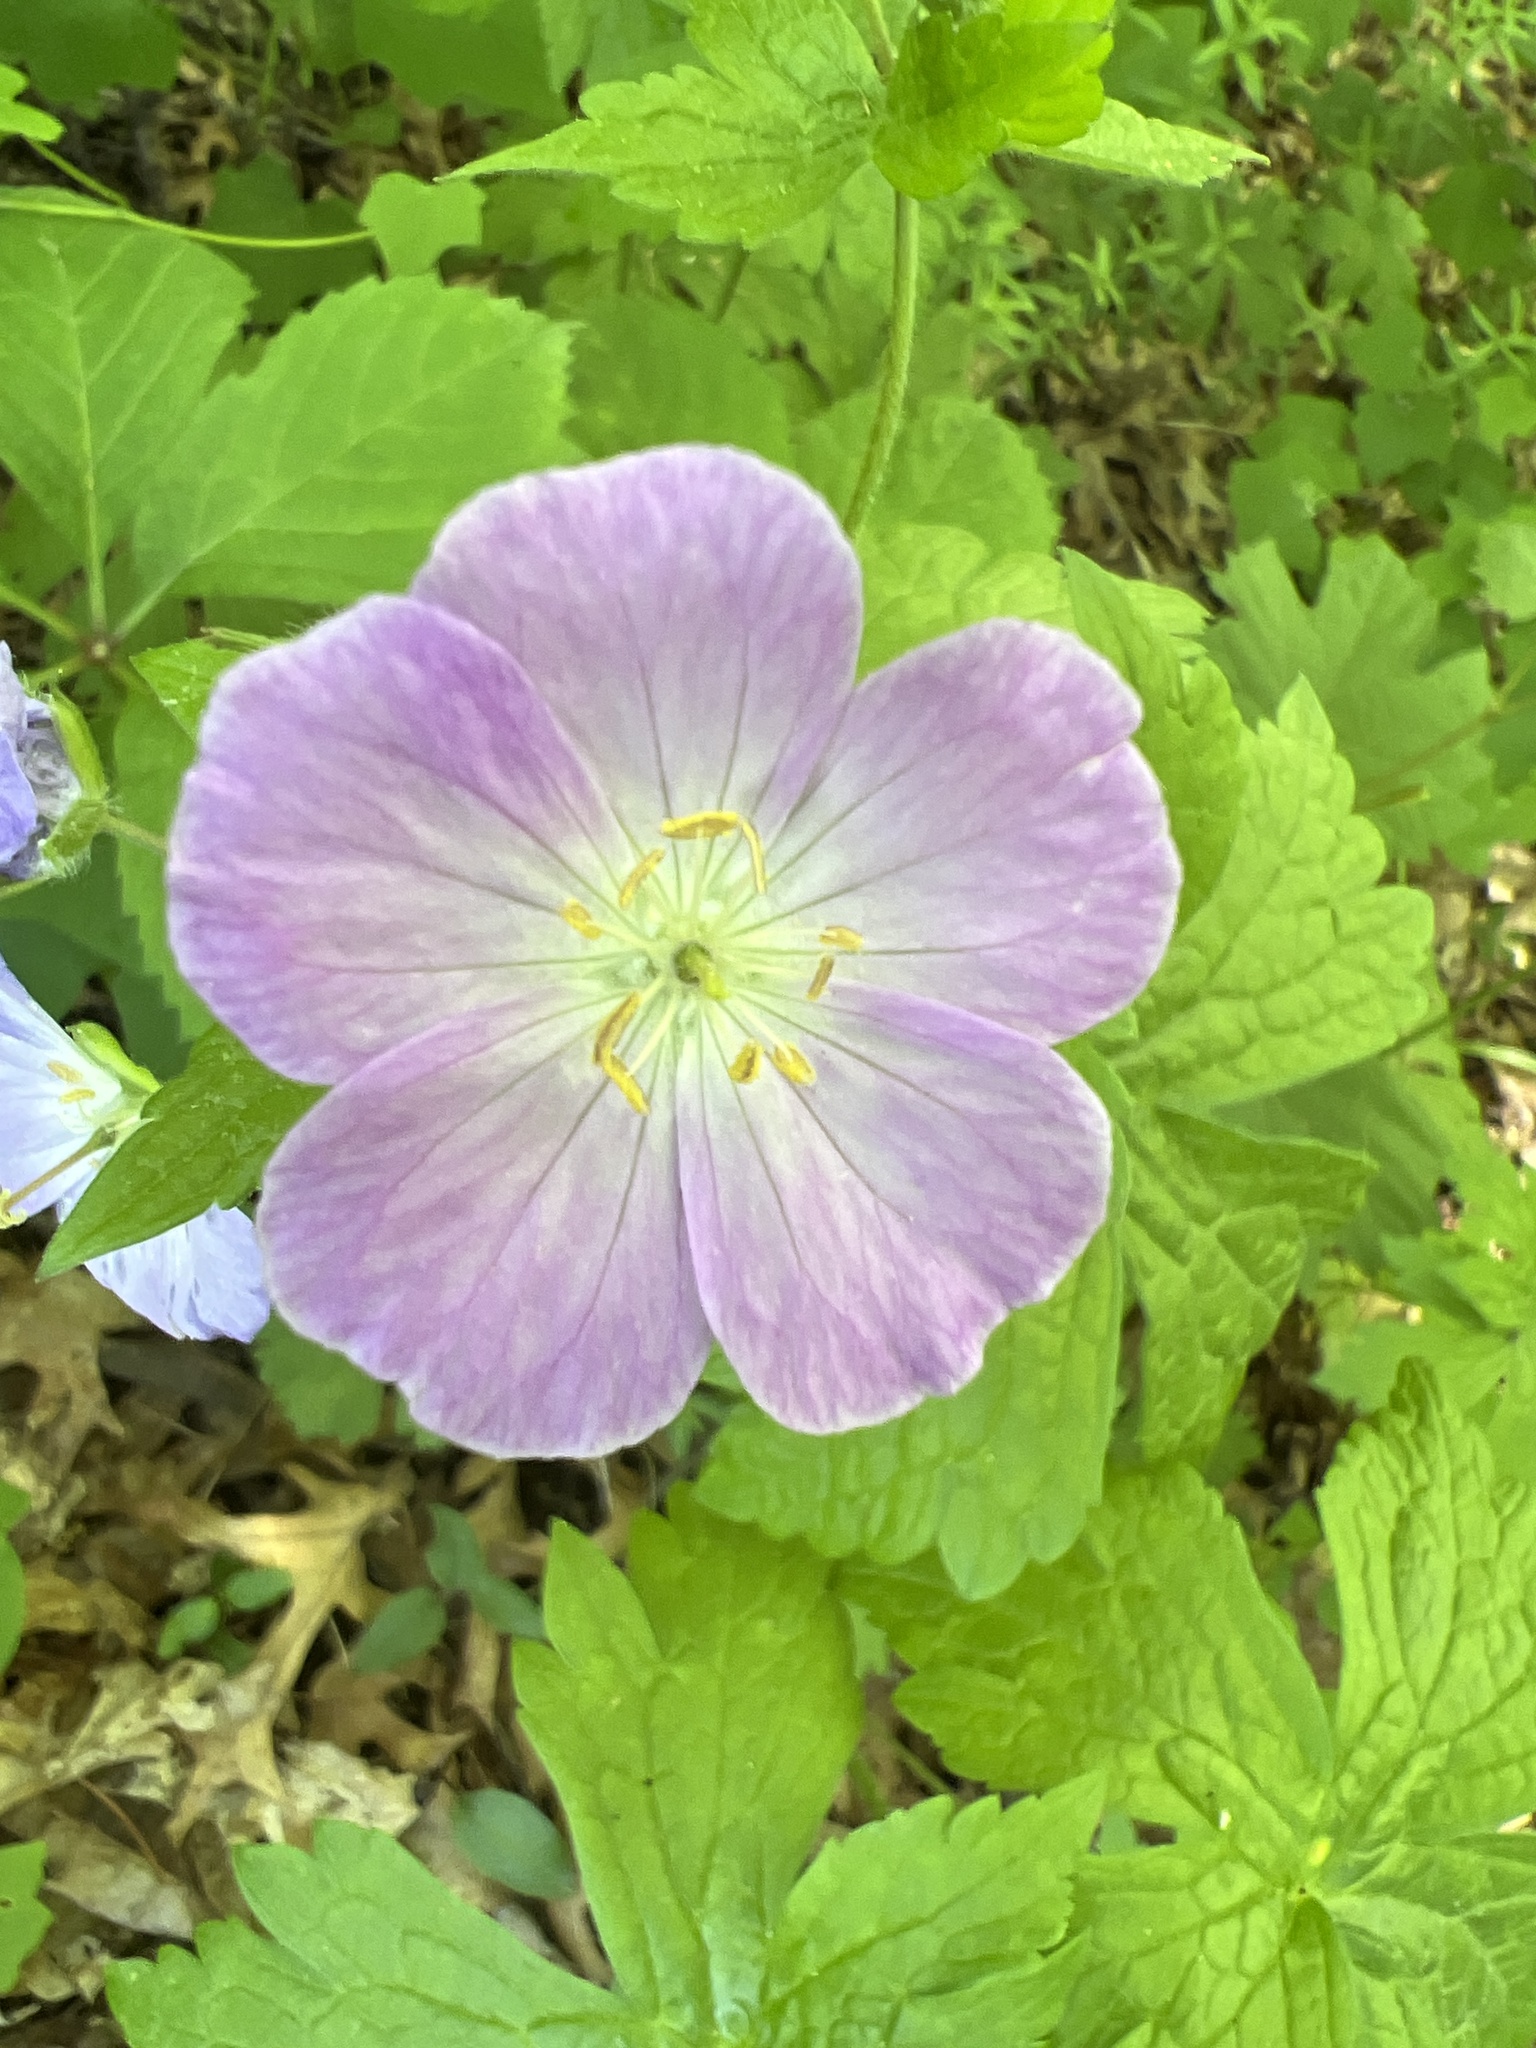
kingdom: Plantae
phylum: Tracheophyta
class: Magnoliopsida
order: Geraniales
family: Geraniaceae
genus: Geranium
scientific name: Geranium maculatum
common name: Spotted geranium
